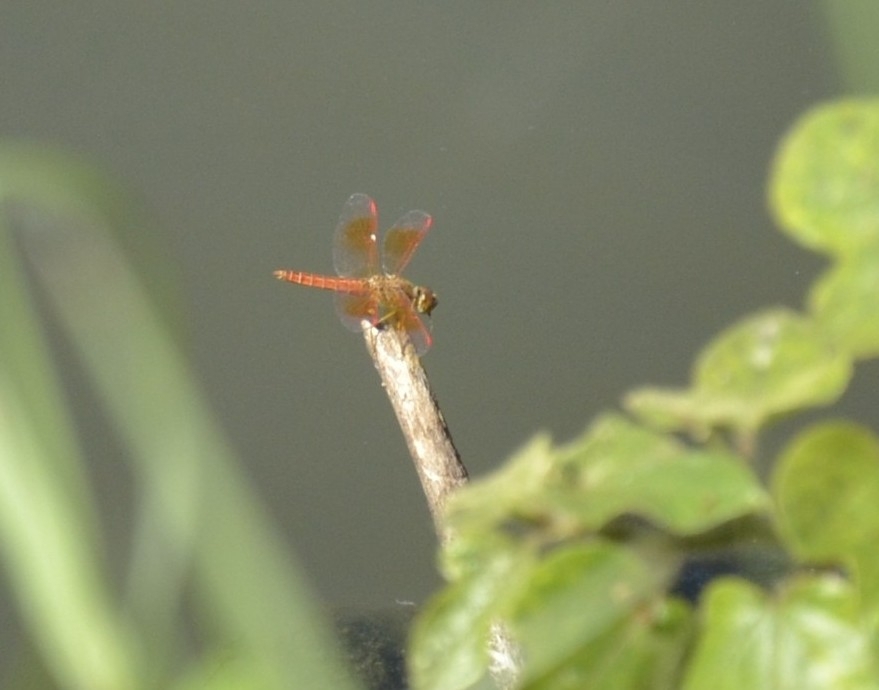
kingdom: Animalia
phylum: Arthropoda
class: Insecta
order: Odonata
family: Libellulidae
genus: Brachythemis
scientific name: Brachythemis contaminata
